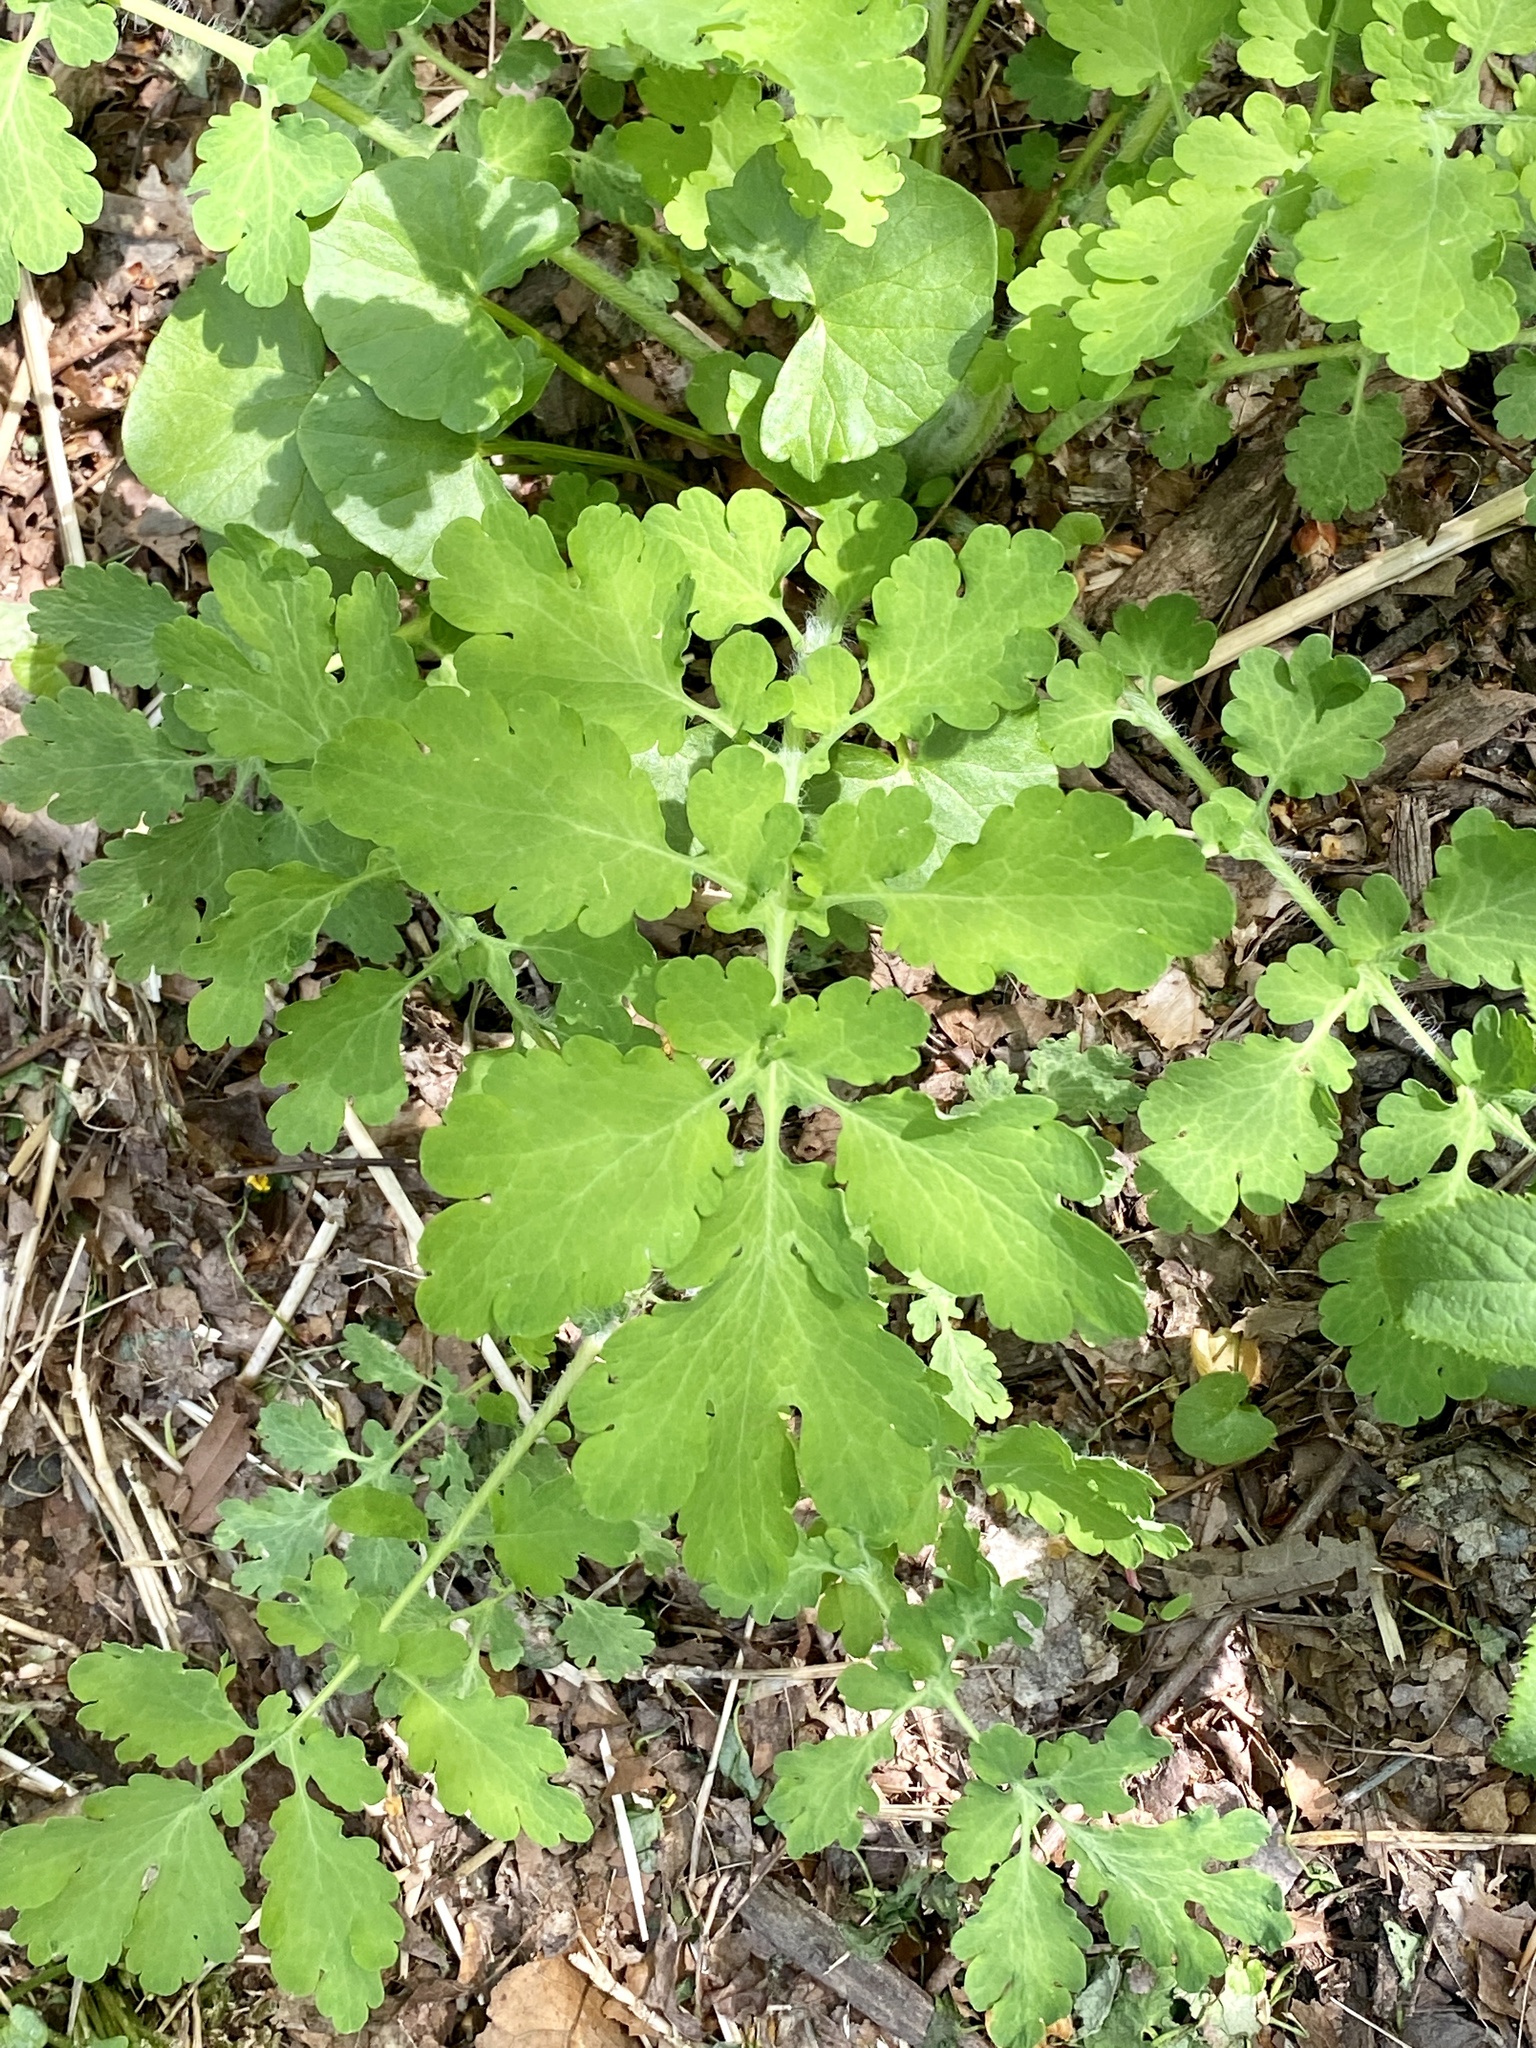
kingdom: Plantae
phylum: Tracheophyta
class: Magnoliopsida
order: Ranunculales
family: Papaveraceae
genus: Chelidonium
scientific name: Chelidonium majus
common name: Greater celandine
